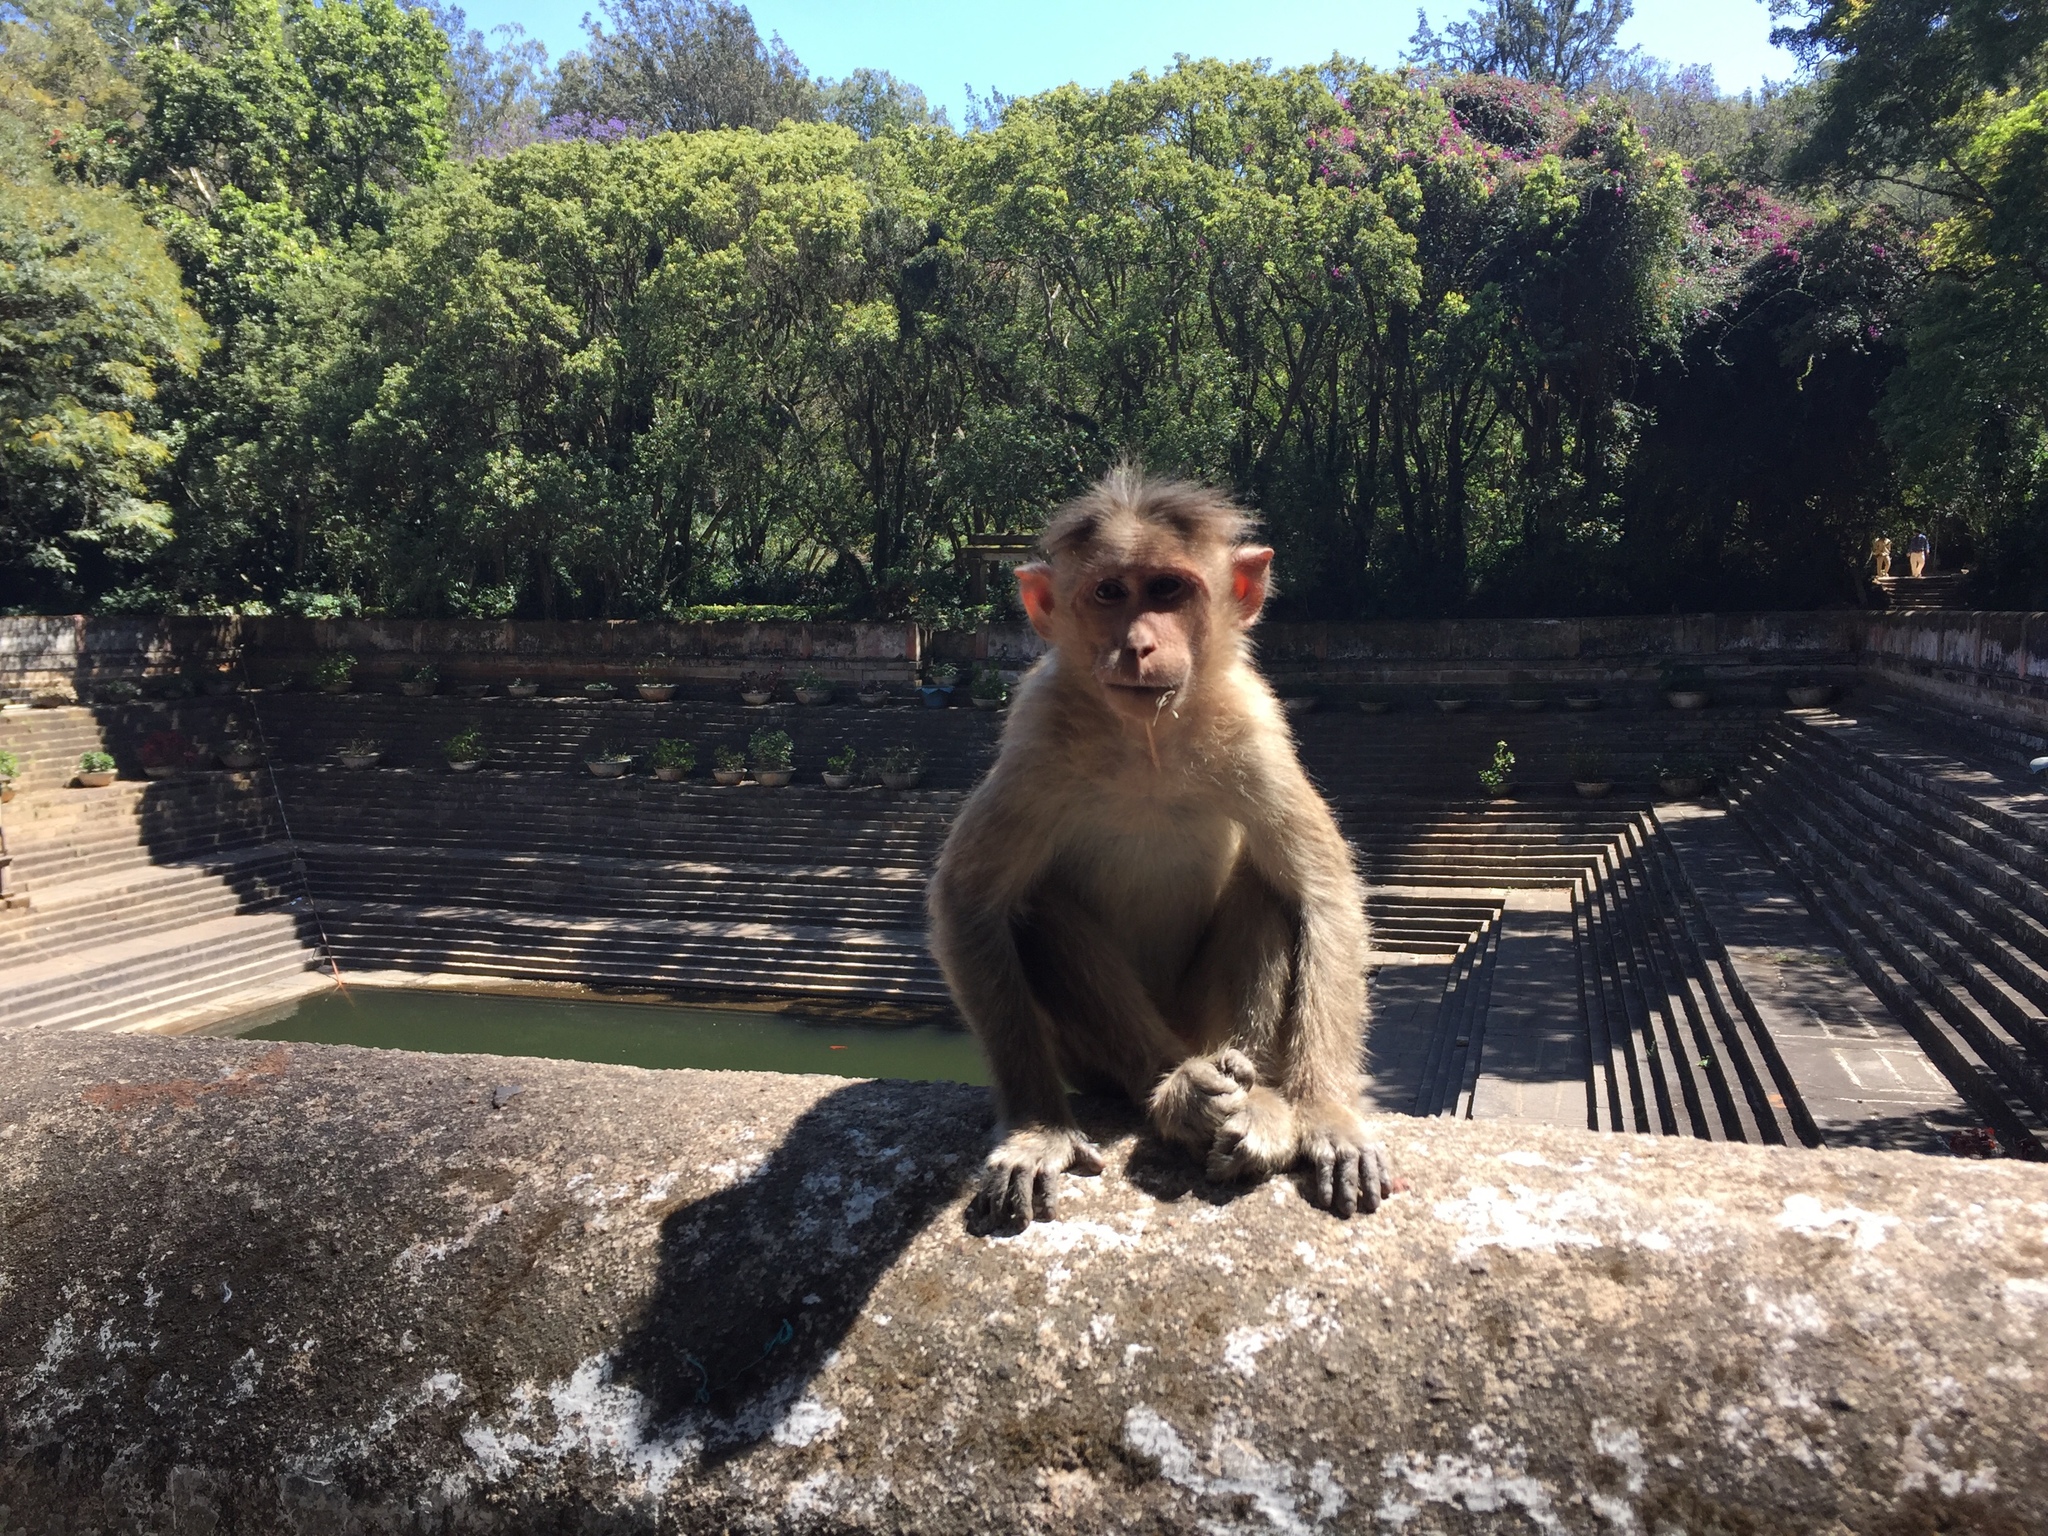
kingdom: Animalia
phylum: Chordata
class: Mammalia
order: Primates
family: Cercopithecidae
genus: Macaca
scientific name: Macaca radiata
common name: Bonnet macaque
